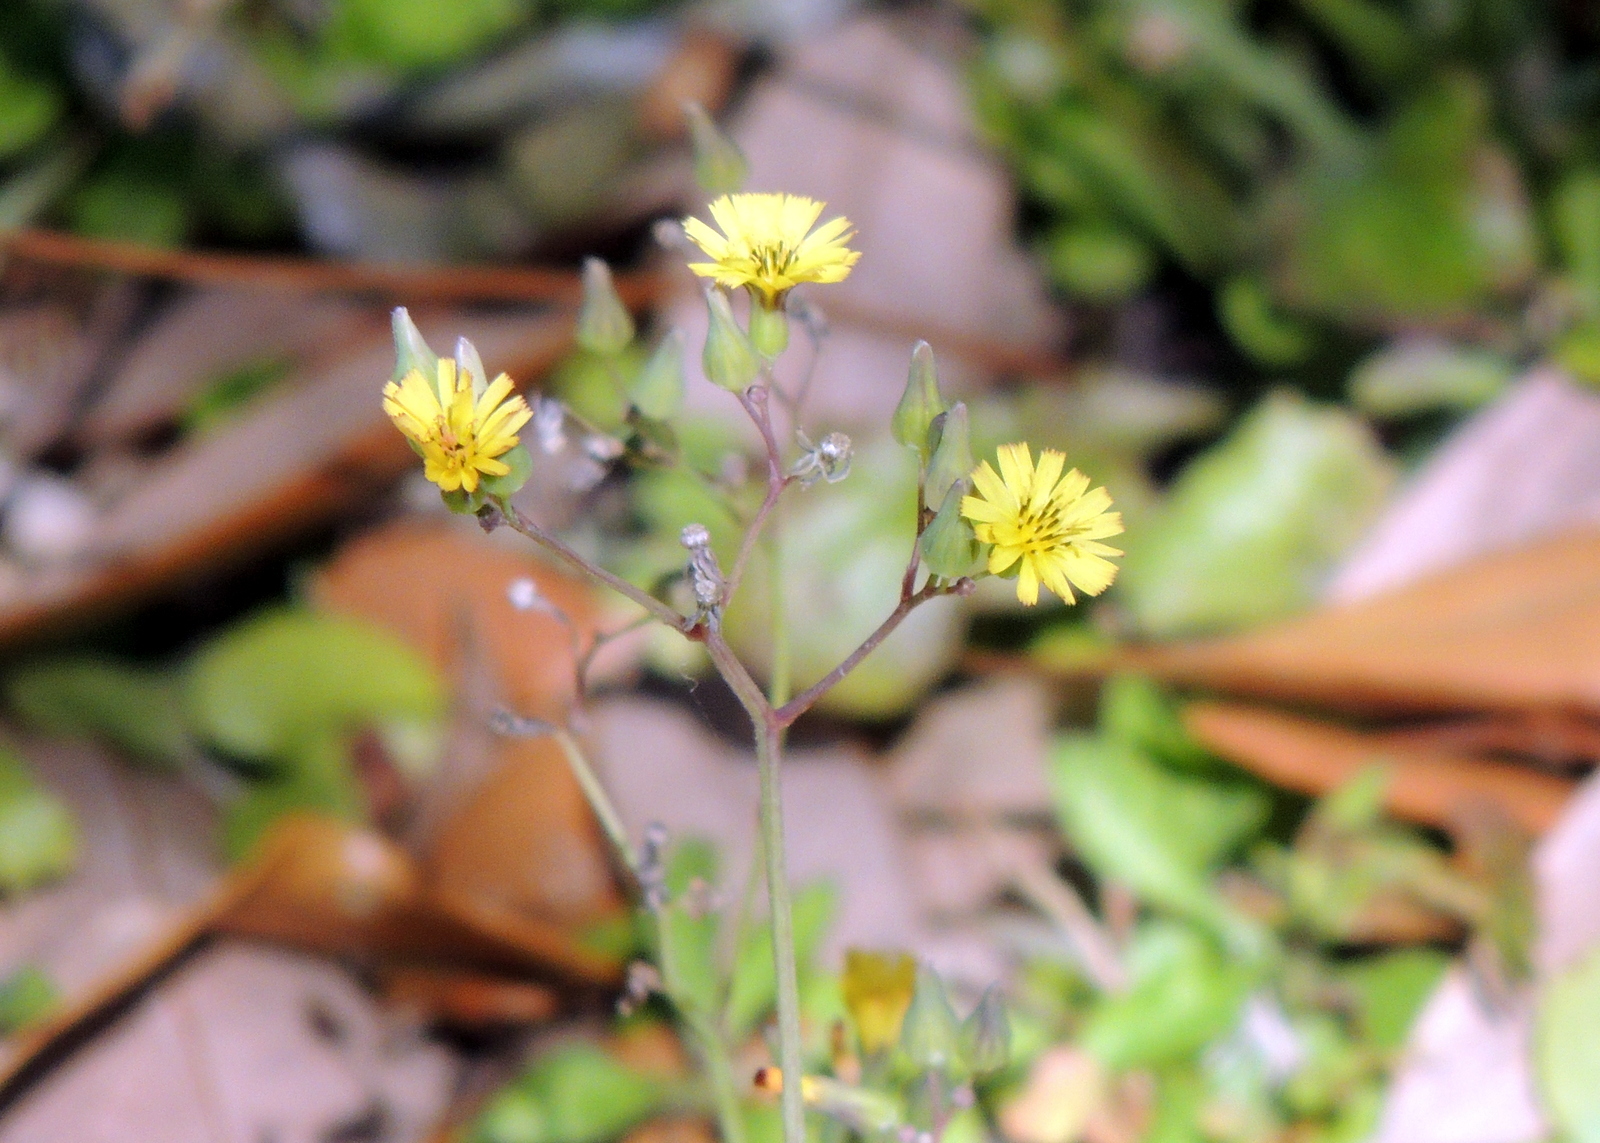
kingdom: Plantae
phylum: Tracheophyta
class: Magnoliopsida
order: Asterales
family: Asteraceae
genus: Youngia
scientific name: Youngia japonica
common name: Oriental false hawksbeard
